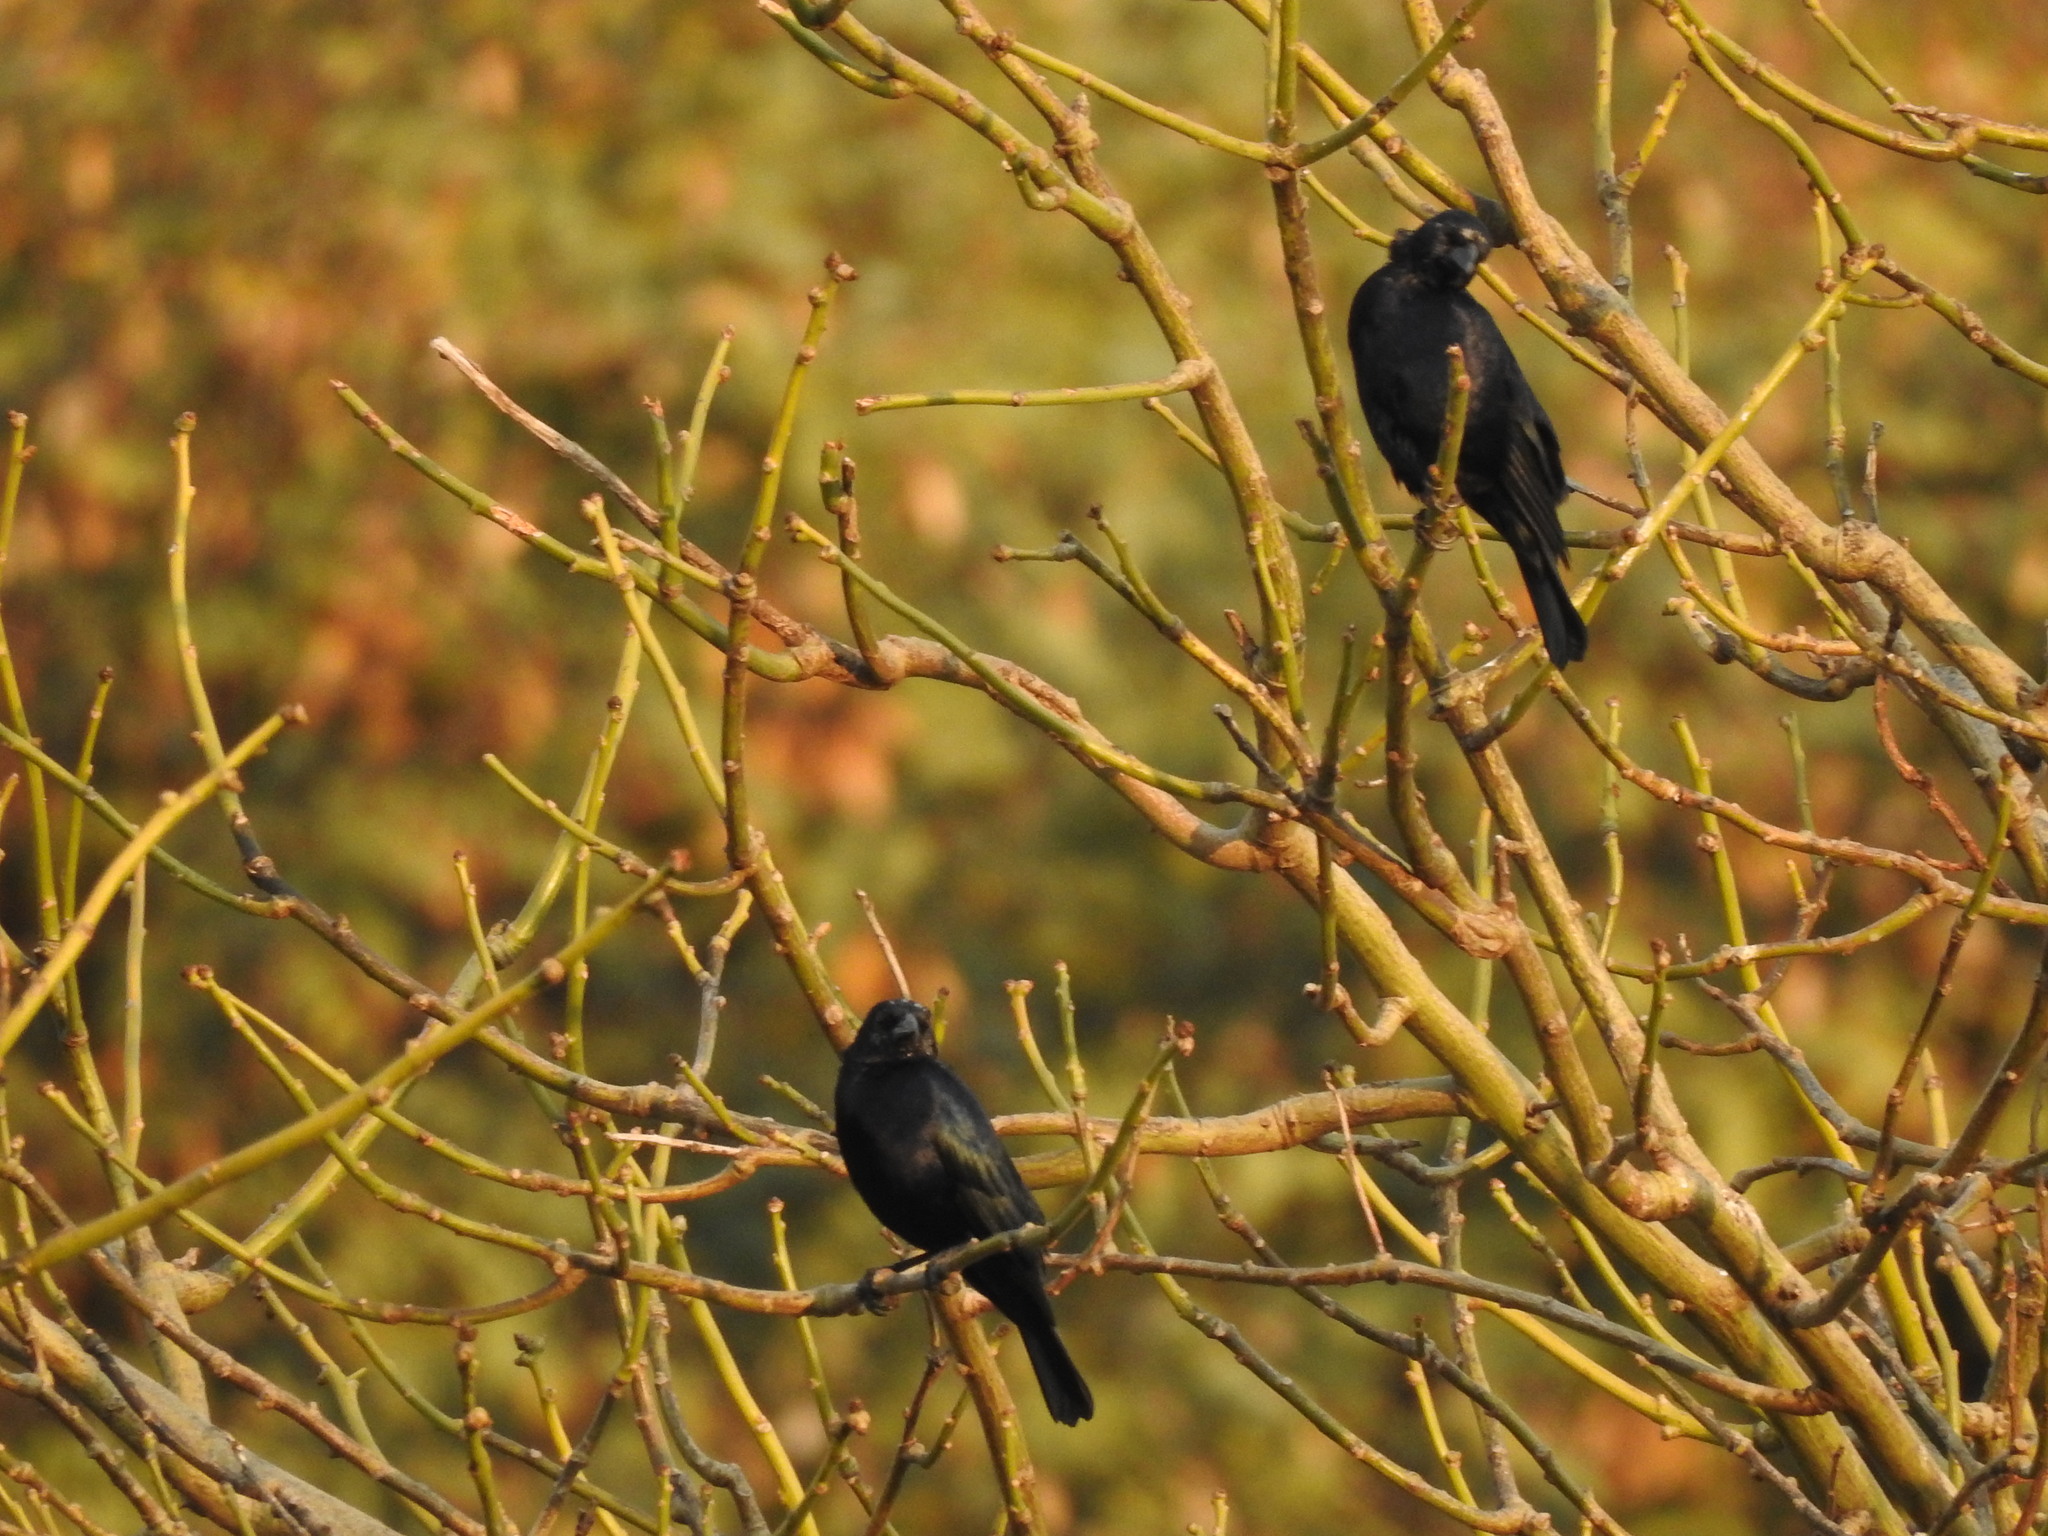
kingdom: Animalia
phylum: Chordata
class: Aves
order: Passeriformes
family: Icteridae
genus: Molothrus
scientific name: Molothrus bonariensis
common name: Shiny cowbird
